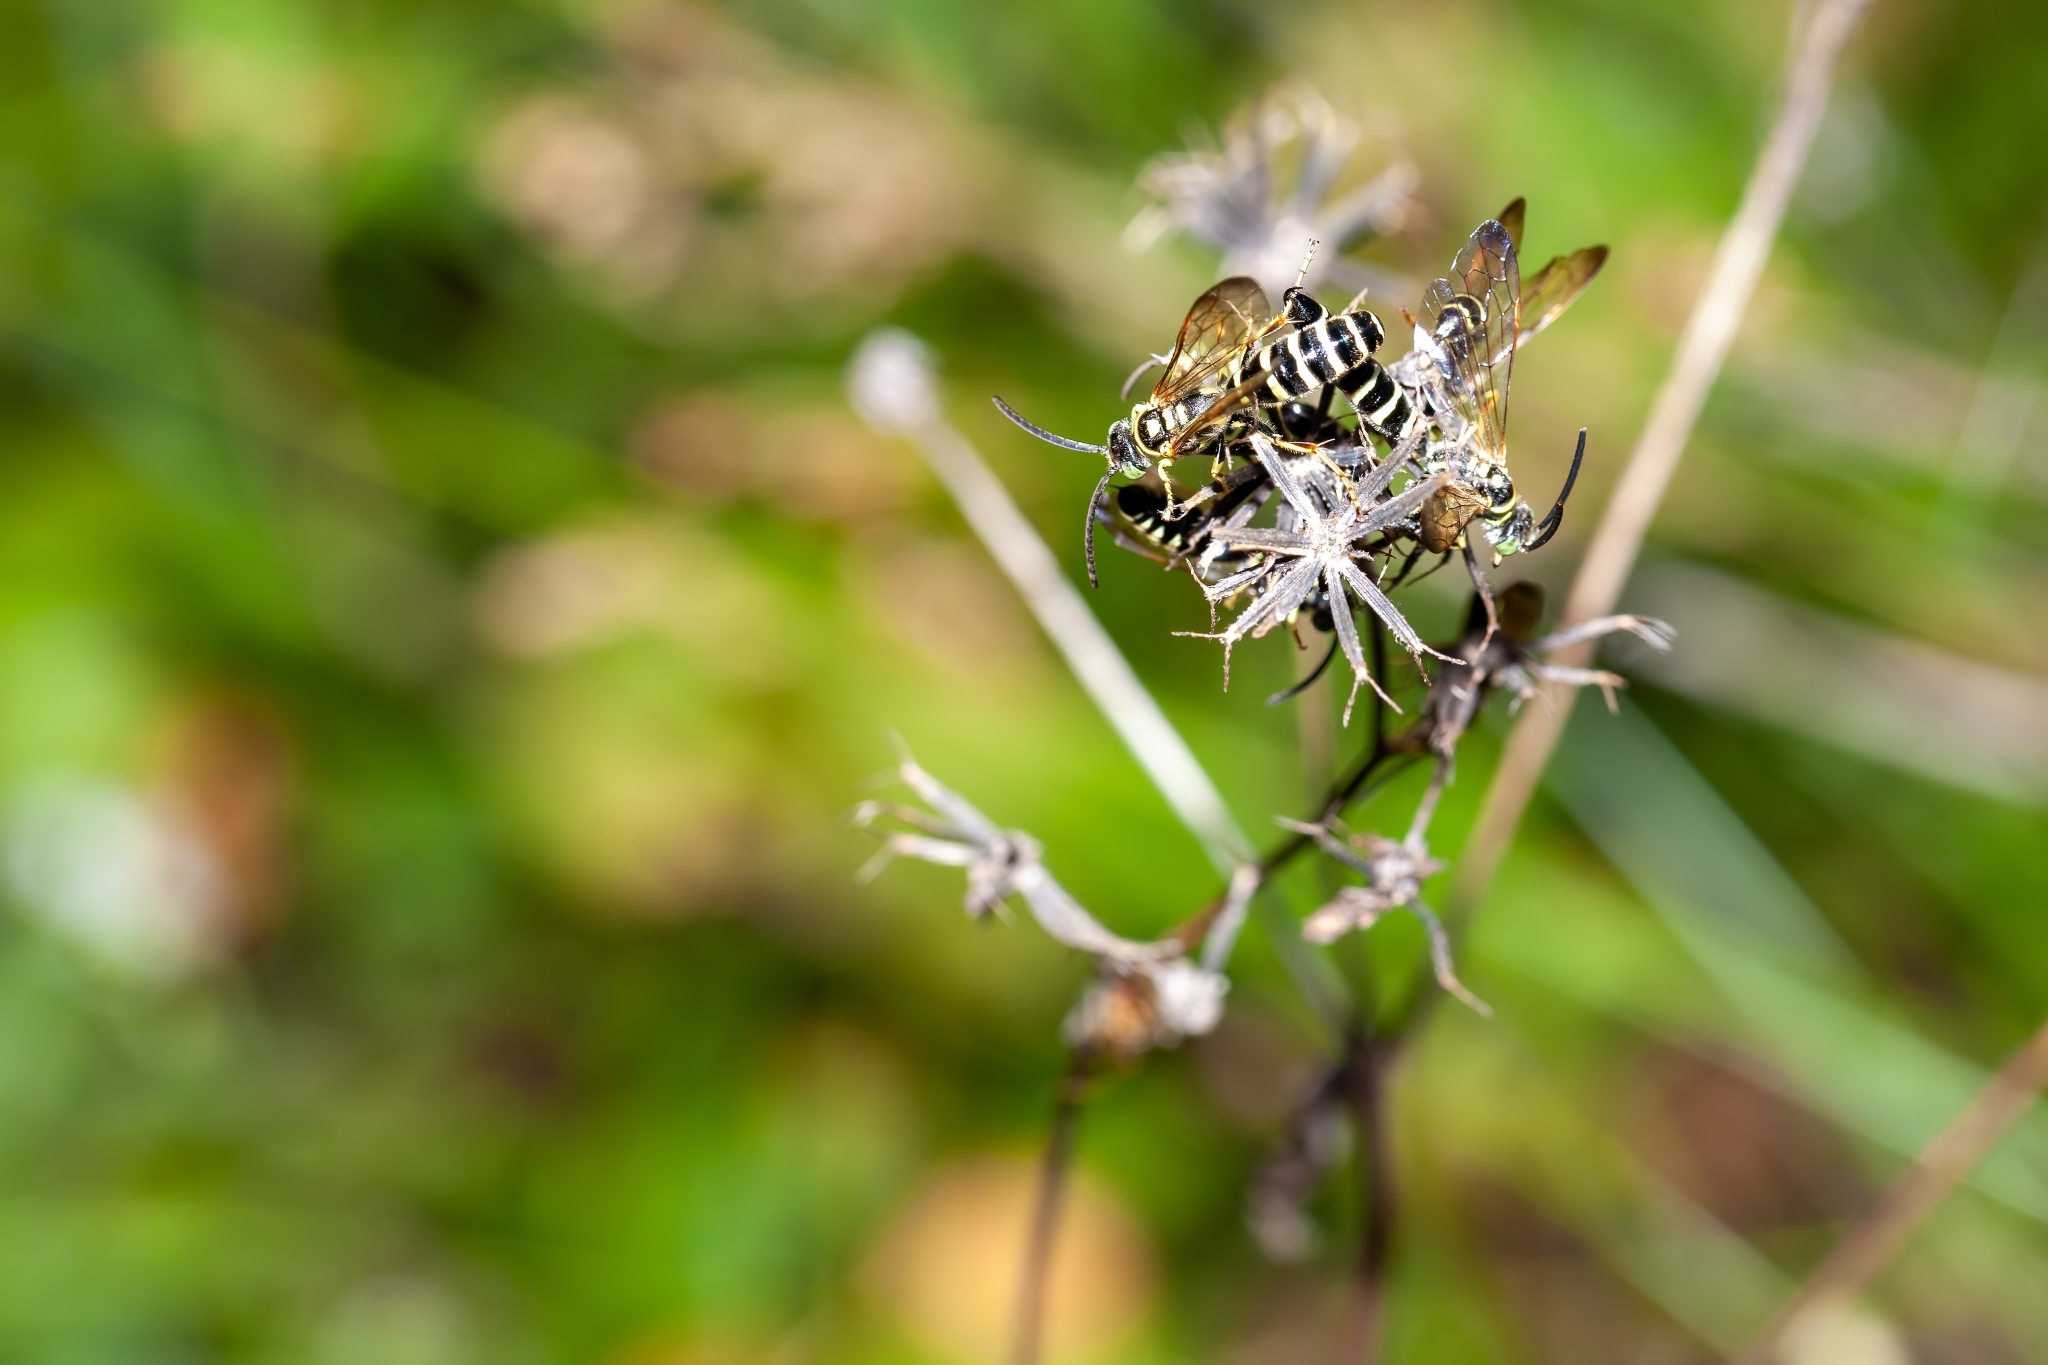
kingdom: Animalia
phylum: Arthropoda
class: Insecta
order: Hymenoptera
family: Tiphiidae
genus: Myzinum
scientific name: Myzinum
